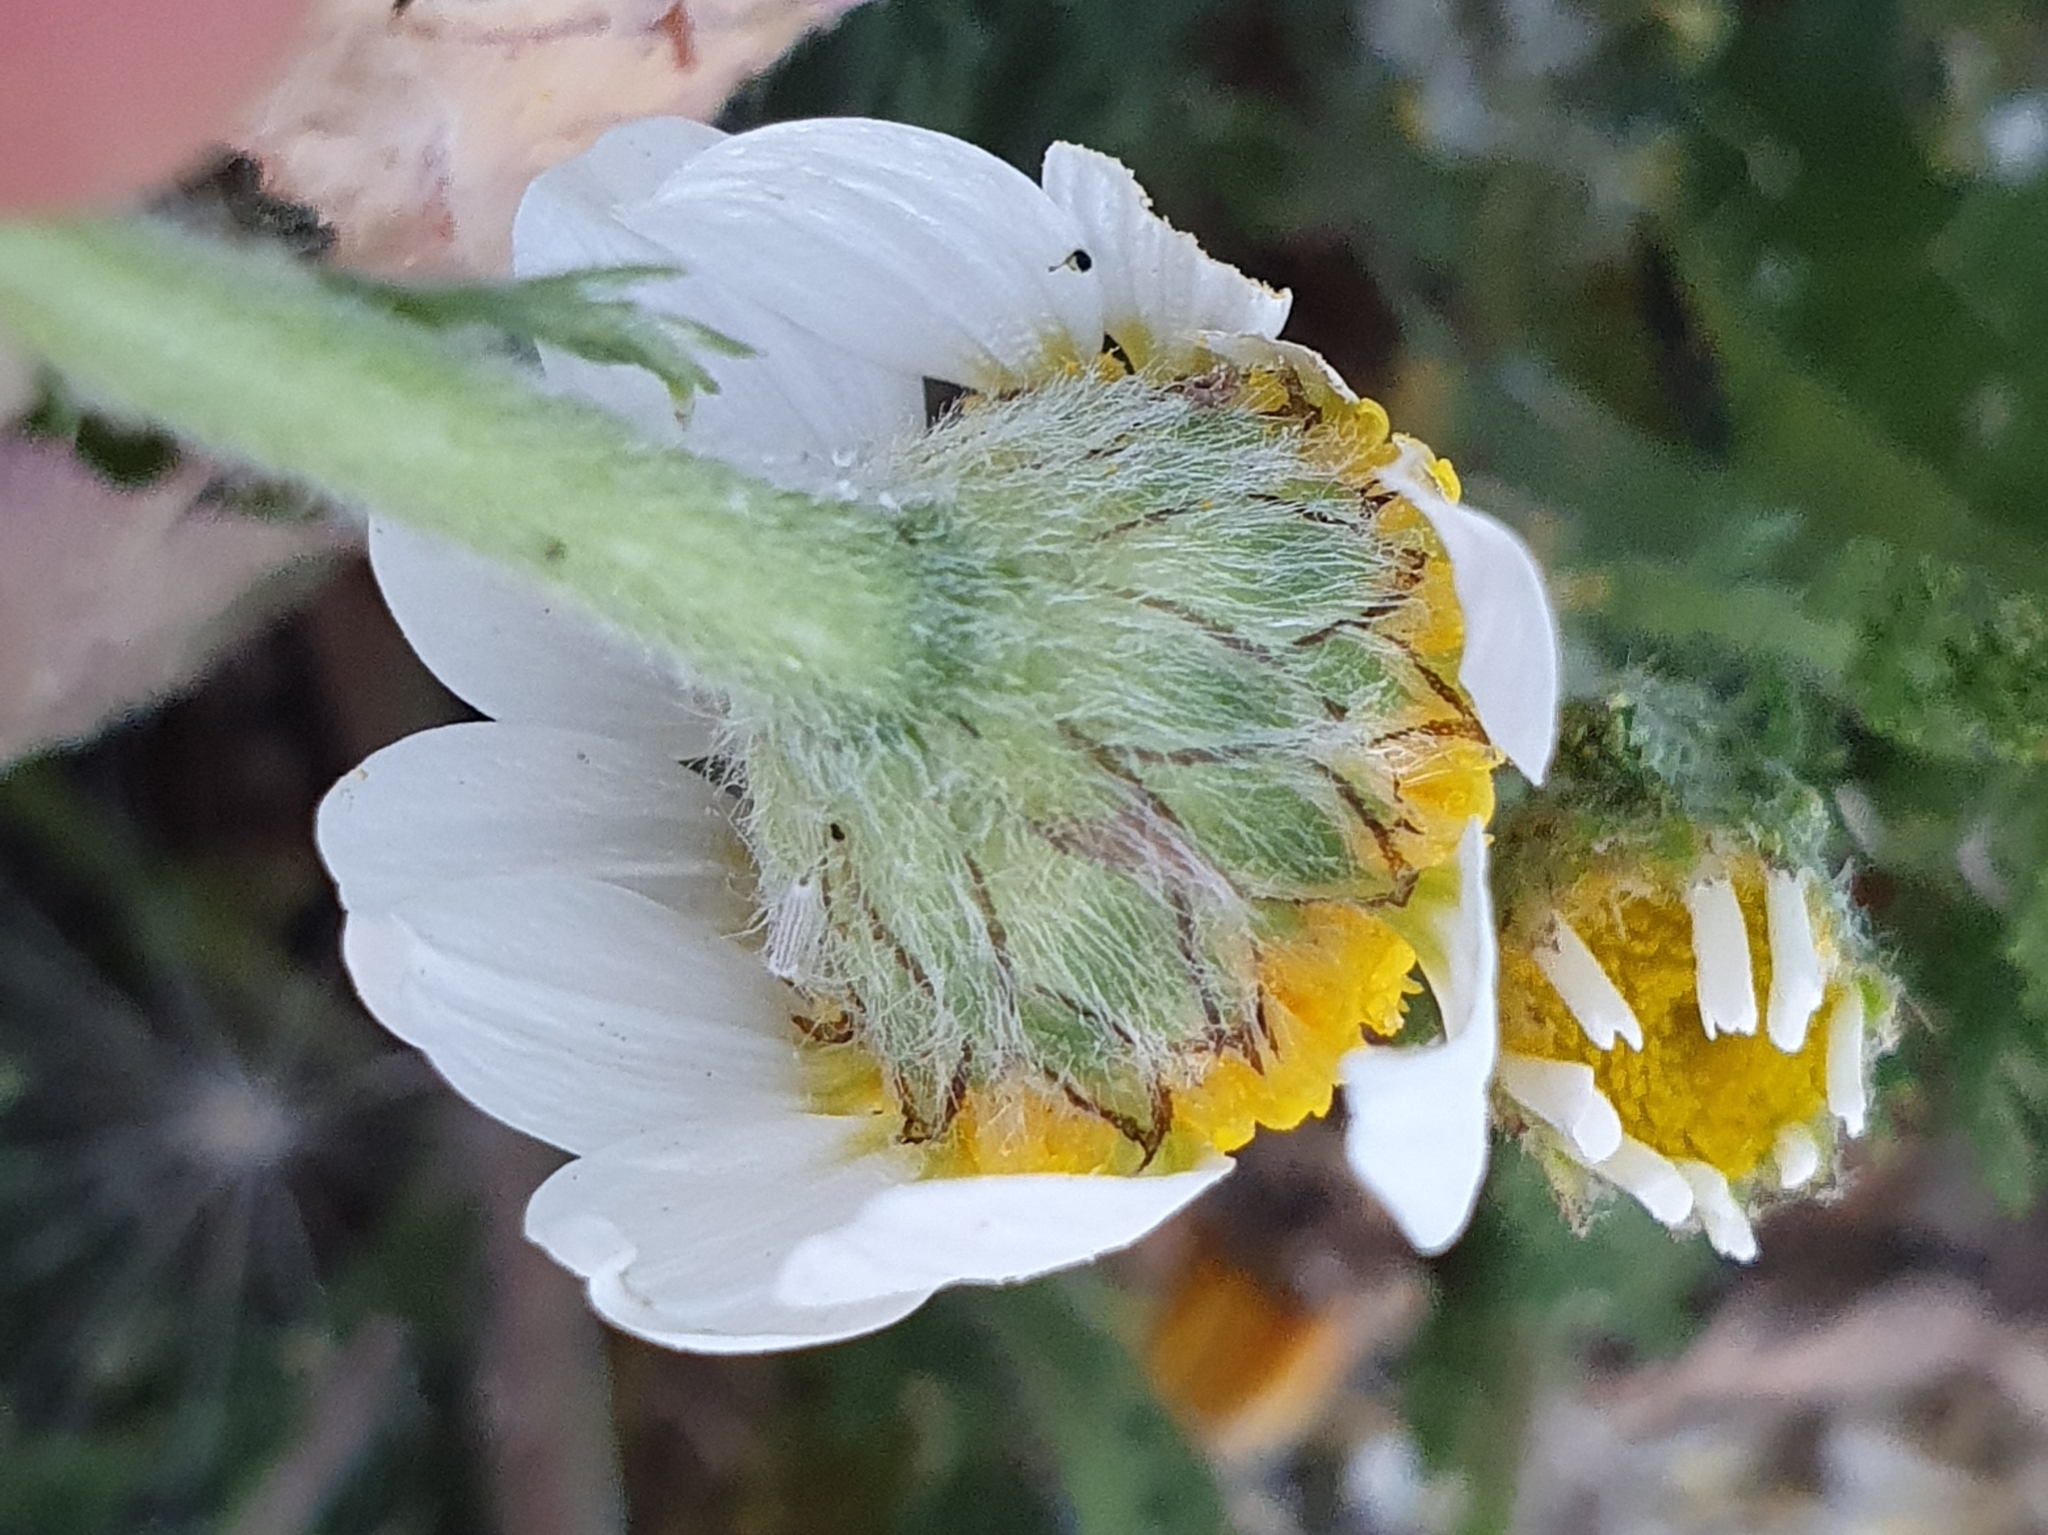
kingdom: Plantae
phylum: Tracheophyta
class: Magnoliopsida
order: Asterales
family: Asteraceae
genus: Anacyclus
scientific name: Anacyclus clavatus
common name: Whitebuttons
